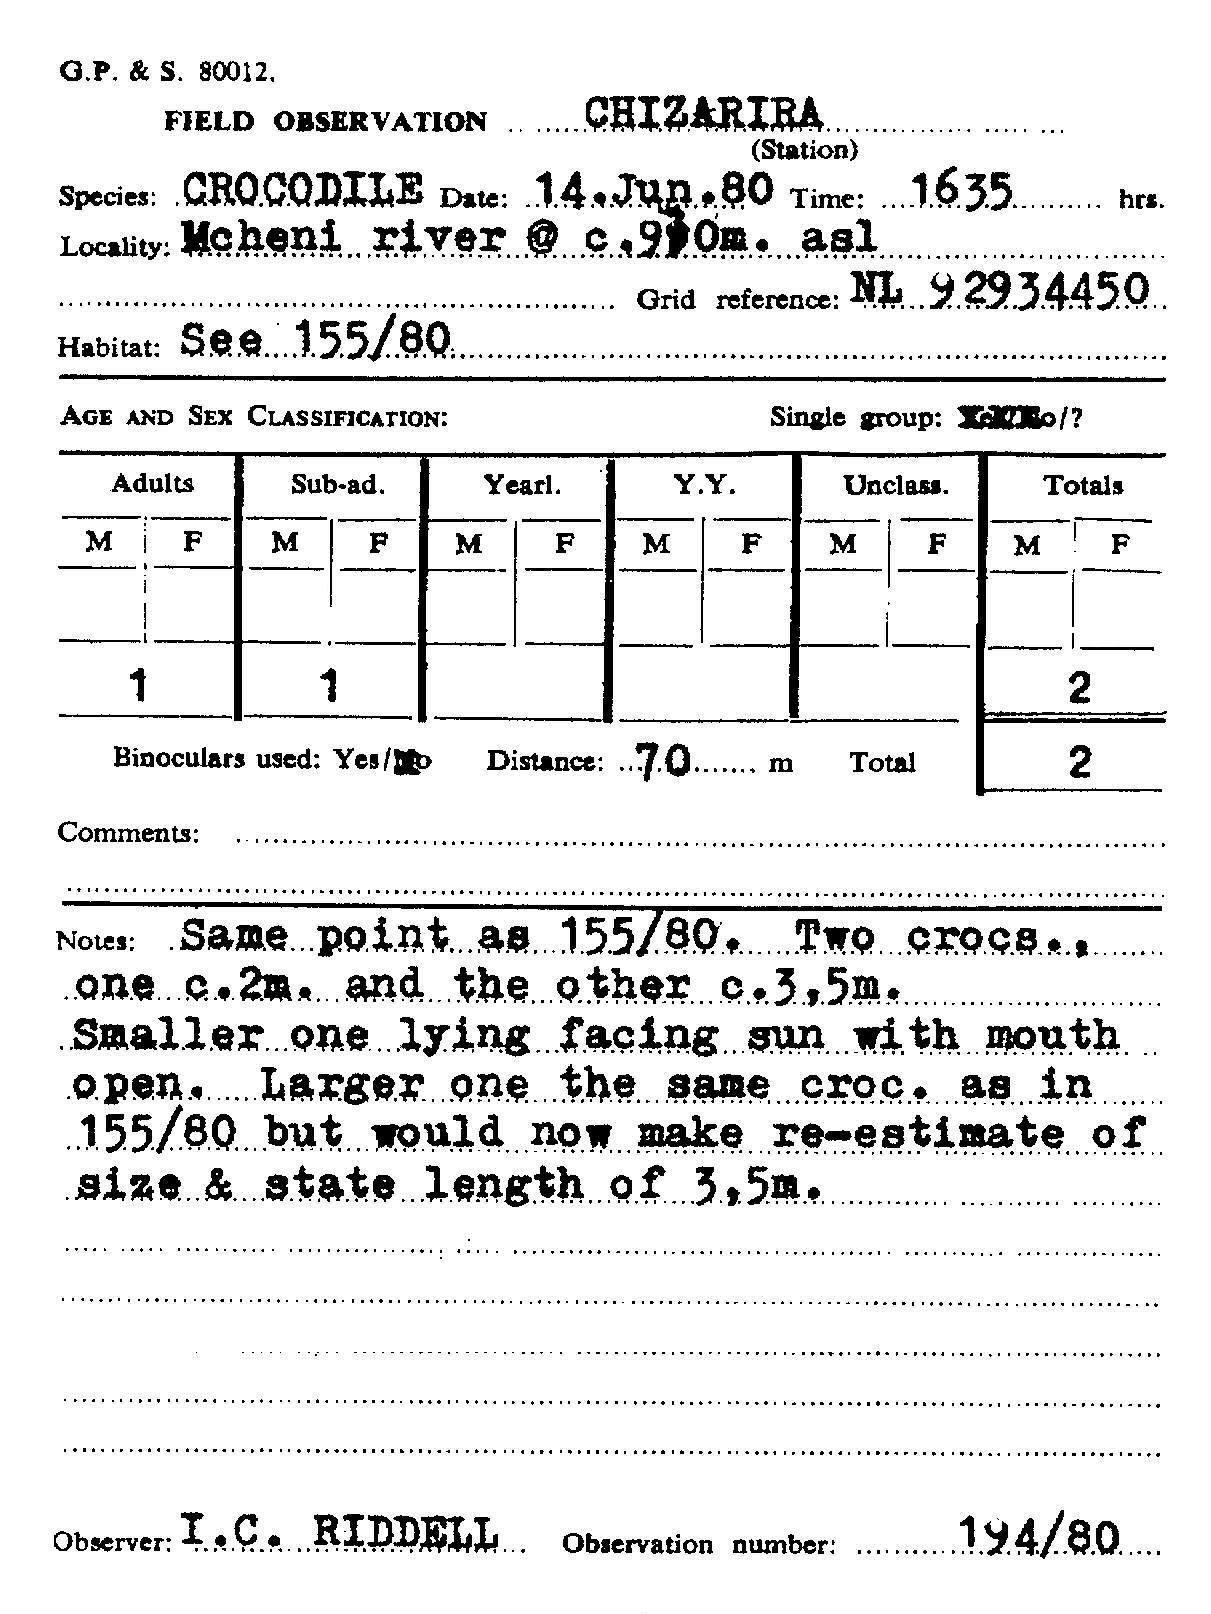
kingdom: Animalia
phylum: Chordata
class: Crocodylia
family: Crocodylidae
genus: Crocodylus
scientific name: Crocodylus niloticus
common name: Nile crocodile
